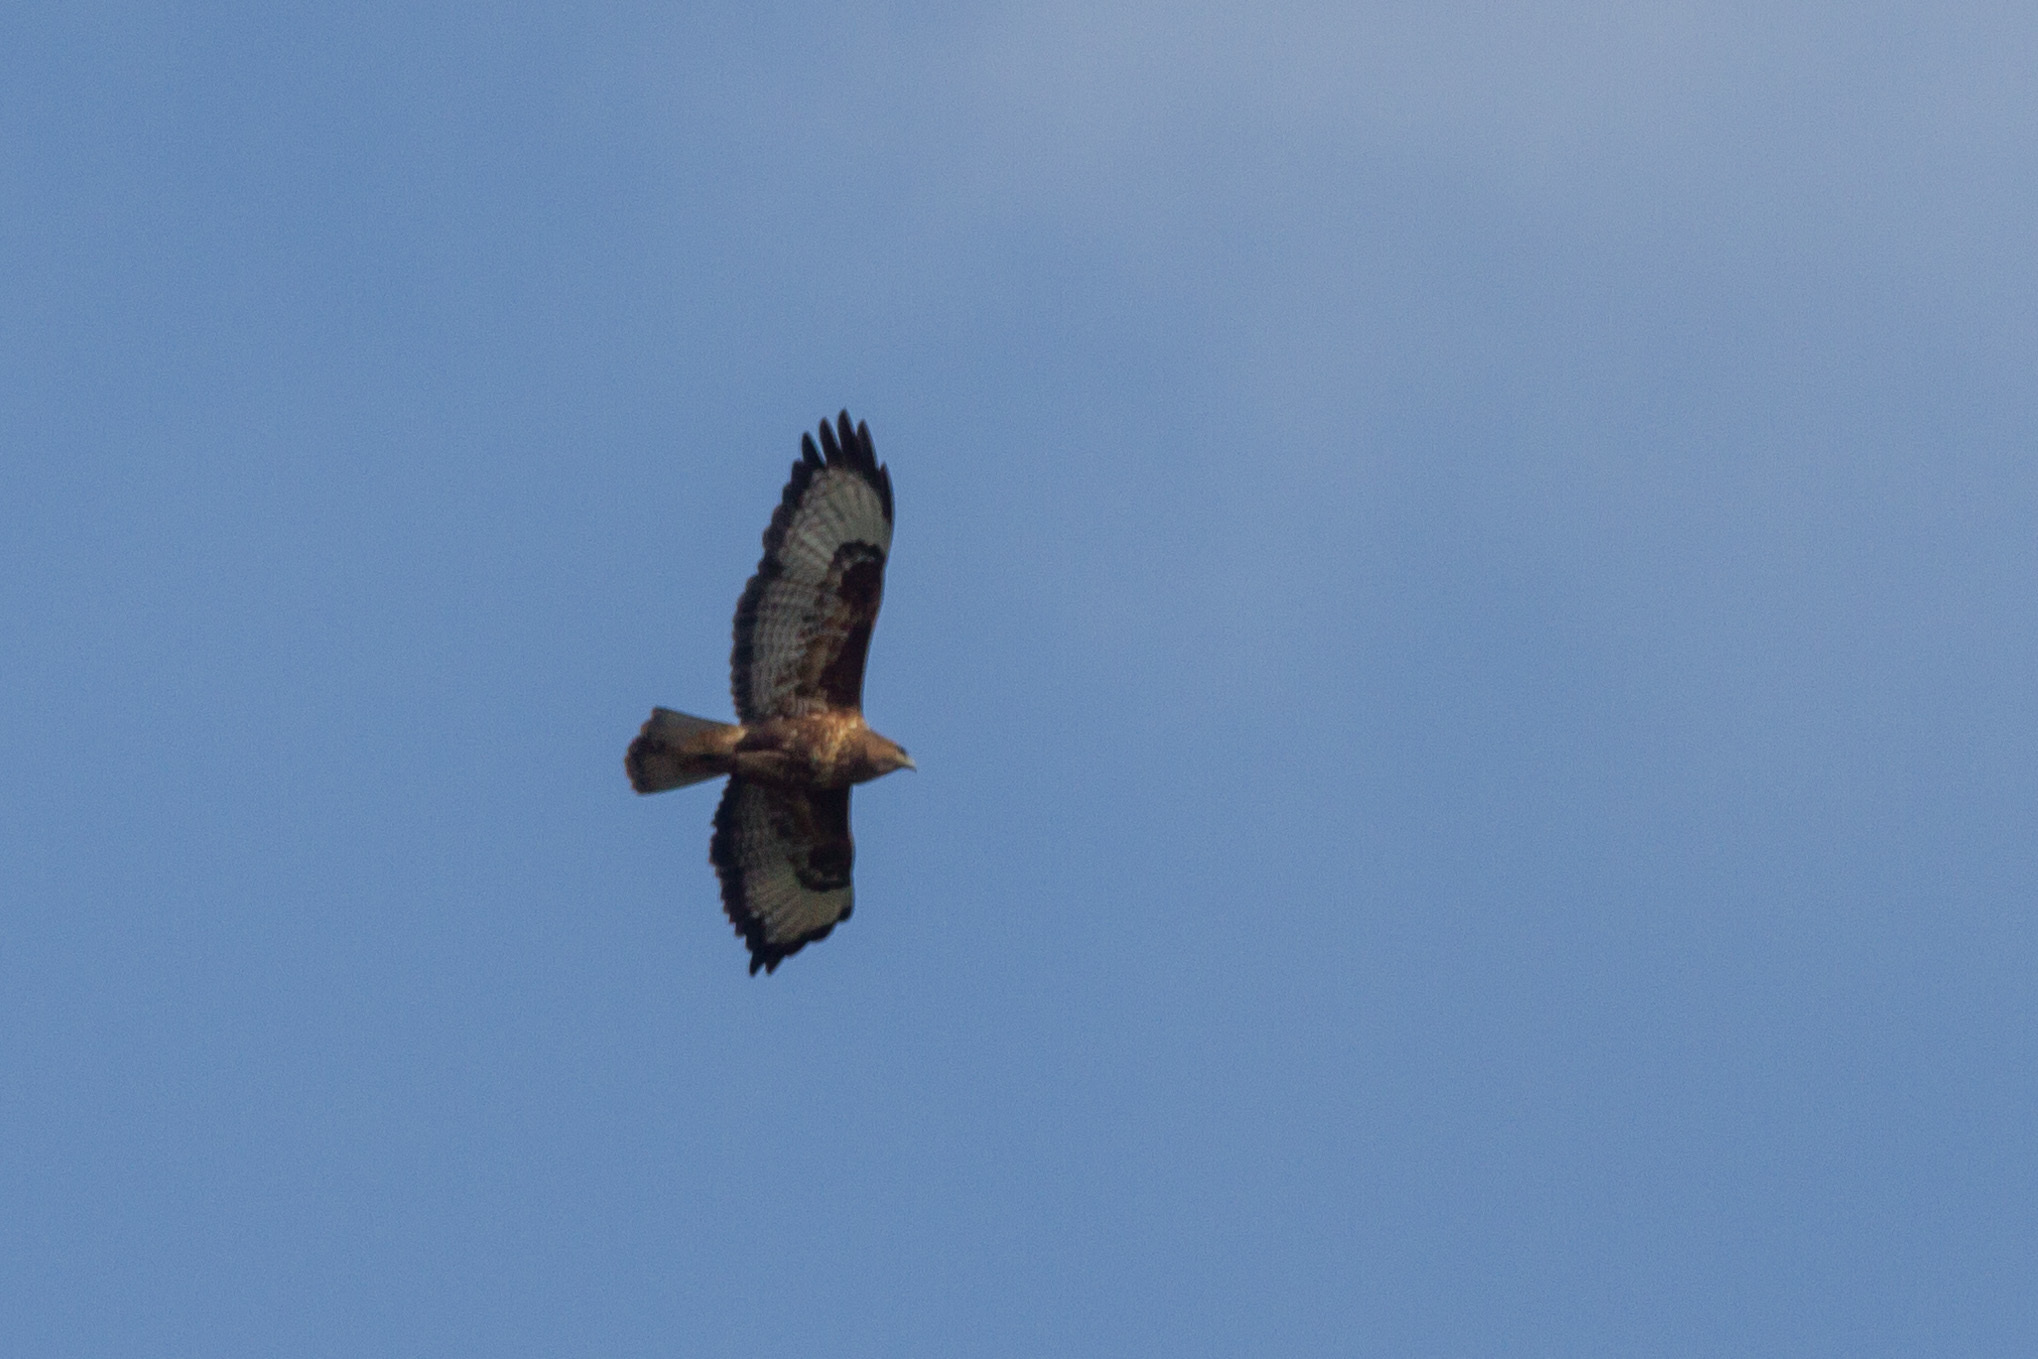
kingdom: Animalia
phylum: Chordata
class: Aves
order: Accipitriformes
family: Accipitridae
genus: Buteo
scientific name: Buteo buteo
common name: Common buzzard
